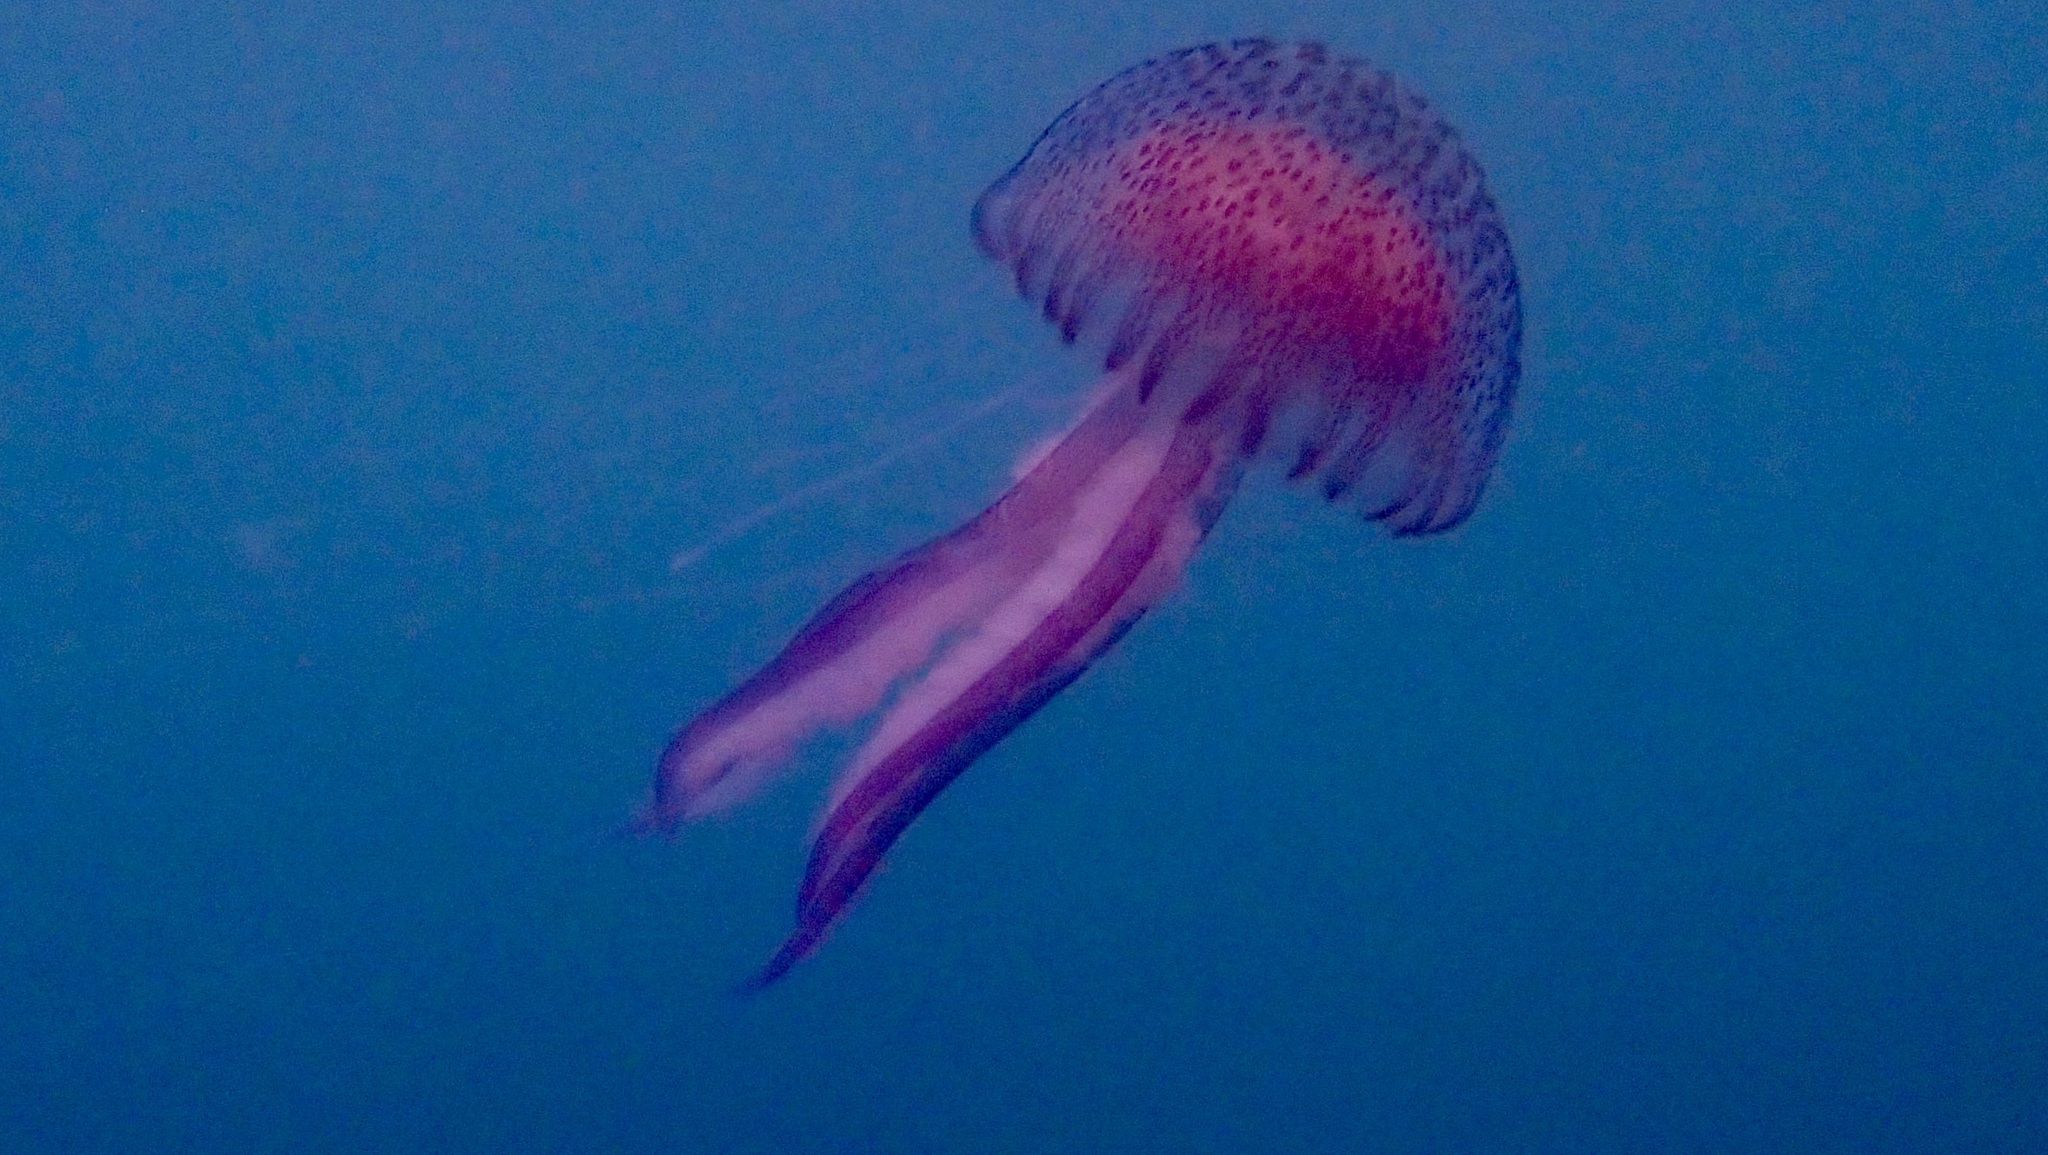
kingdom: Animalia
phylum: Cnidaria
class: Scyphozoa
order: Semaeostomeae
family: Pelagiidae
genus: Pelagia
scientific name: Pelagia noctiluca
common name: Mauve stinger
